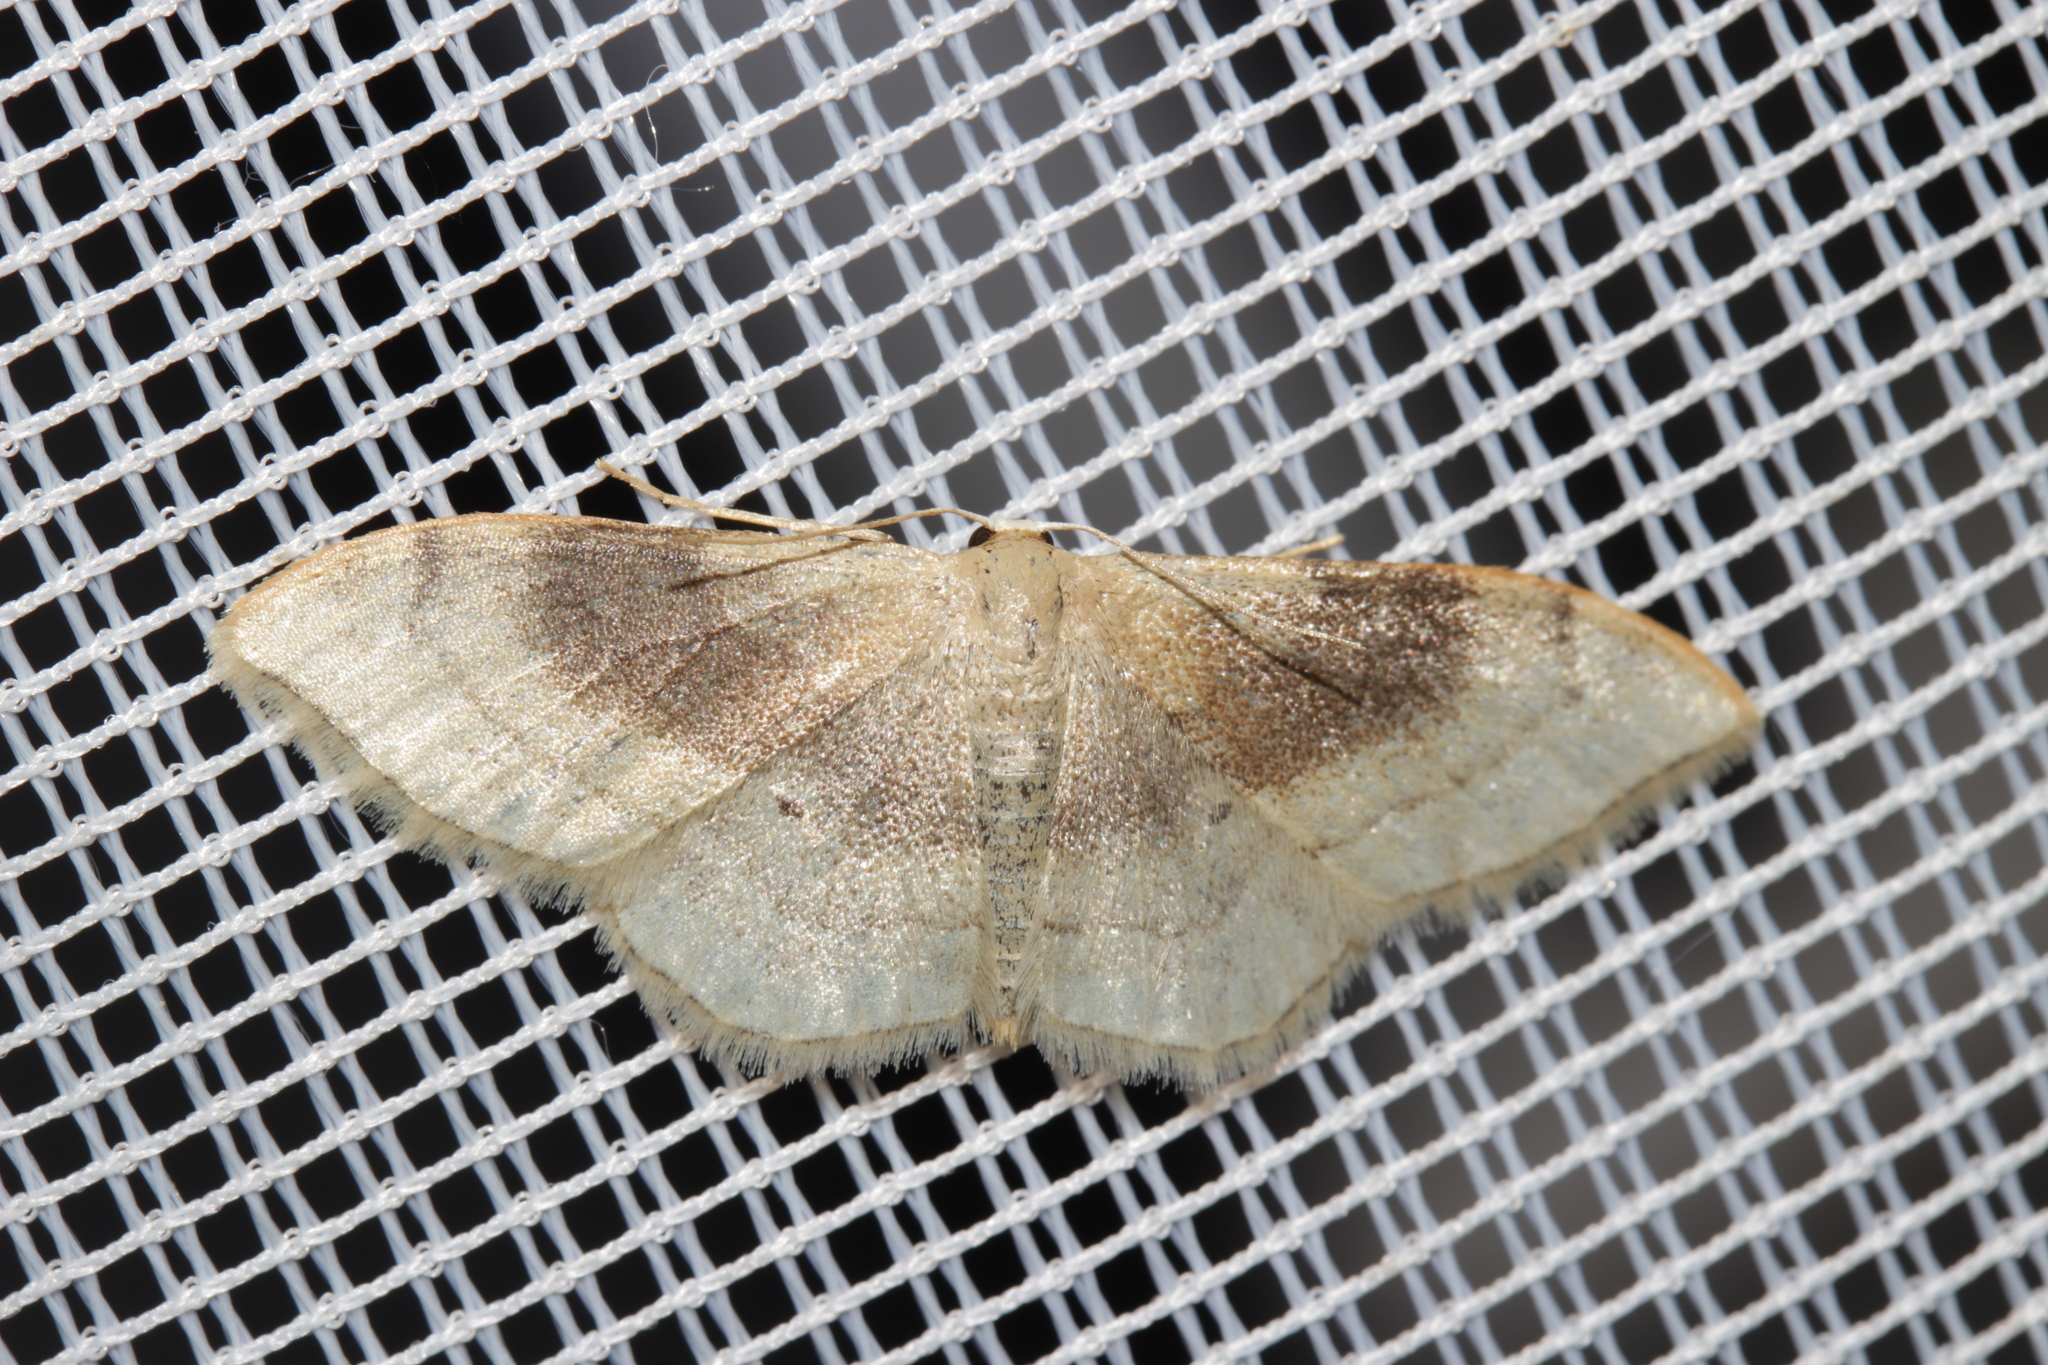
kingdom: Animalia
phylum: Arthropoda
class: Insecta
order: Lepidoptera
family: Geometridae
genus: Idaea
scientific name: Idaea degeneraria
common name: Portland ribbon wave
